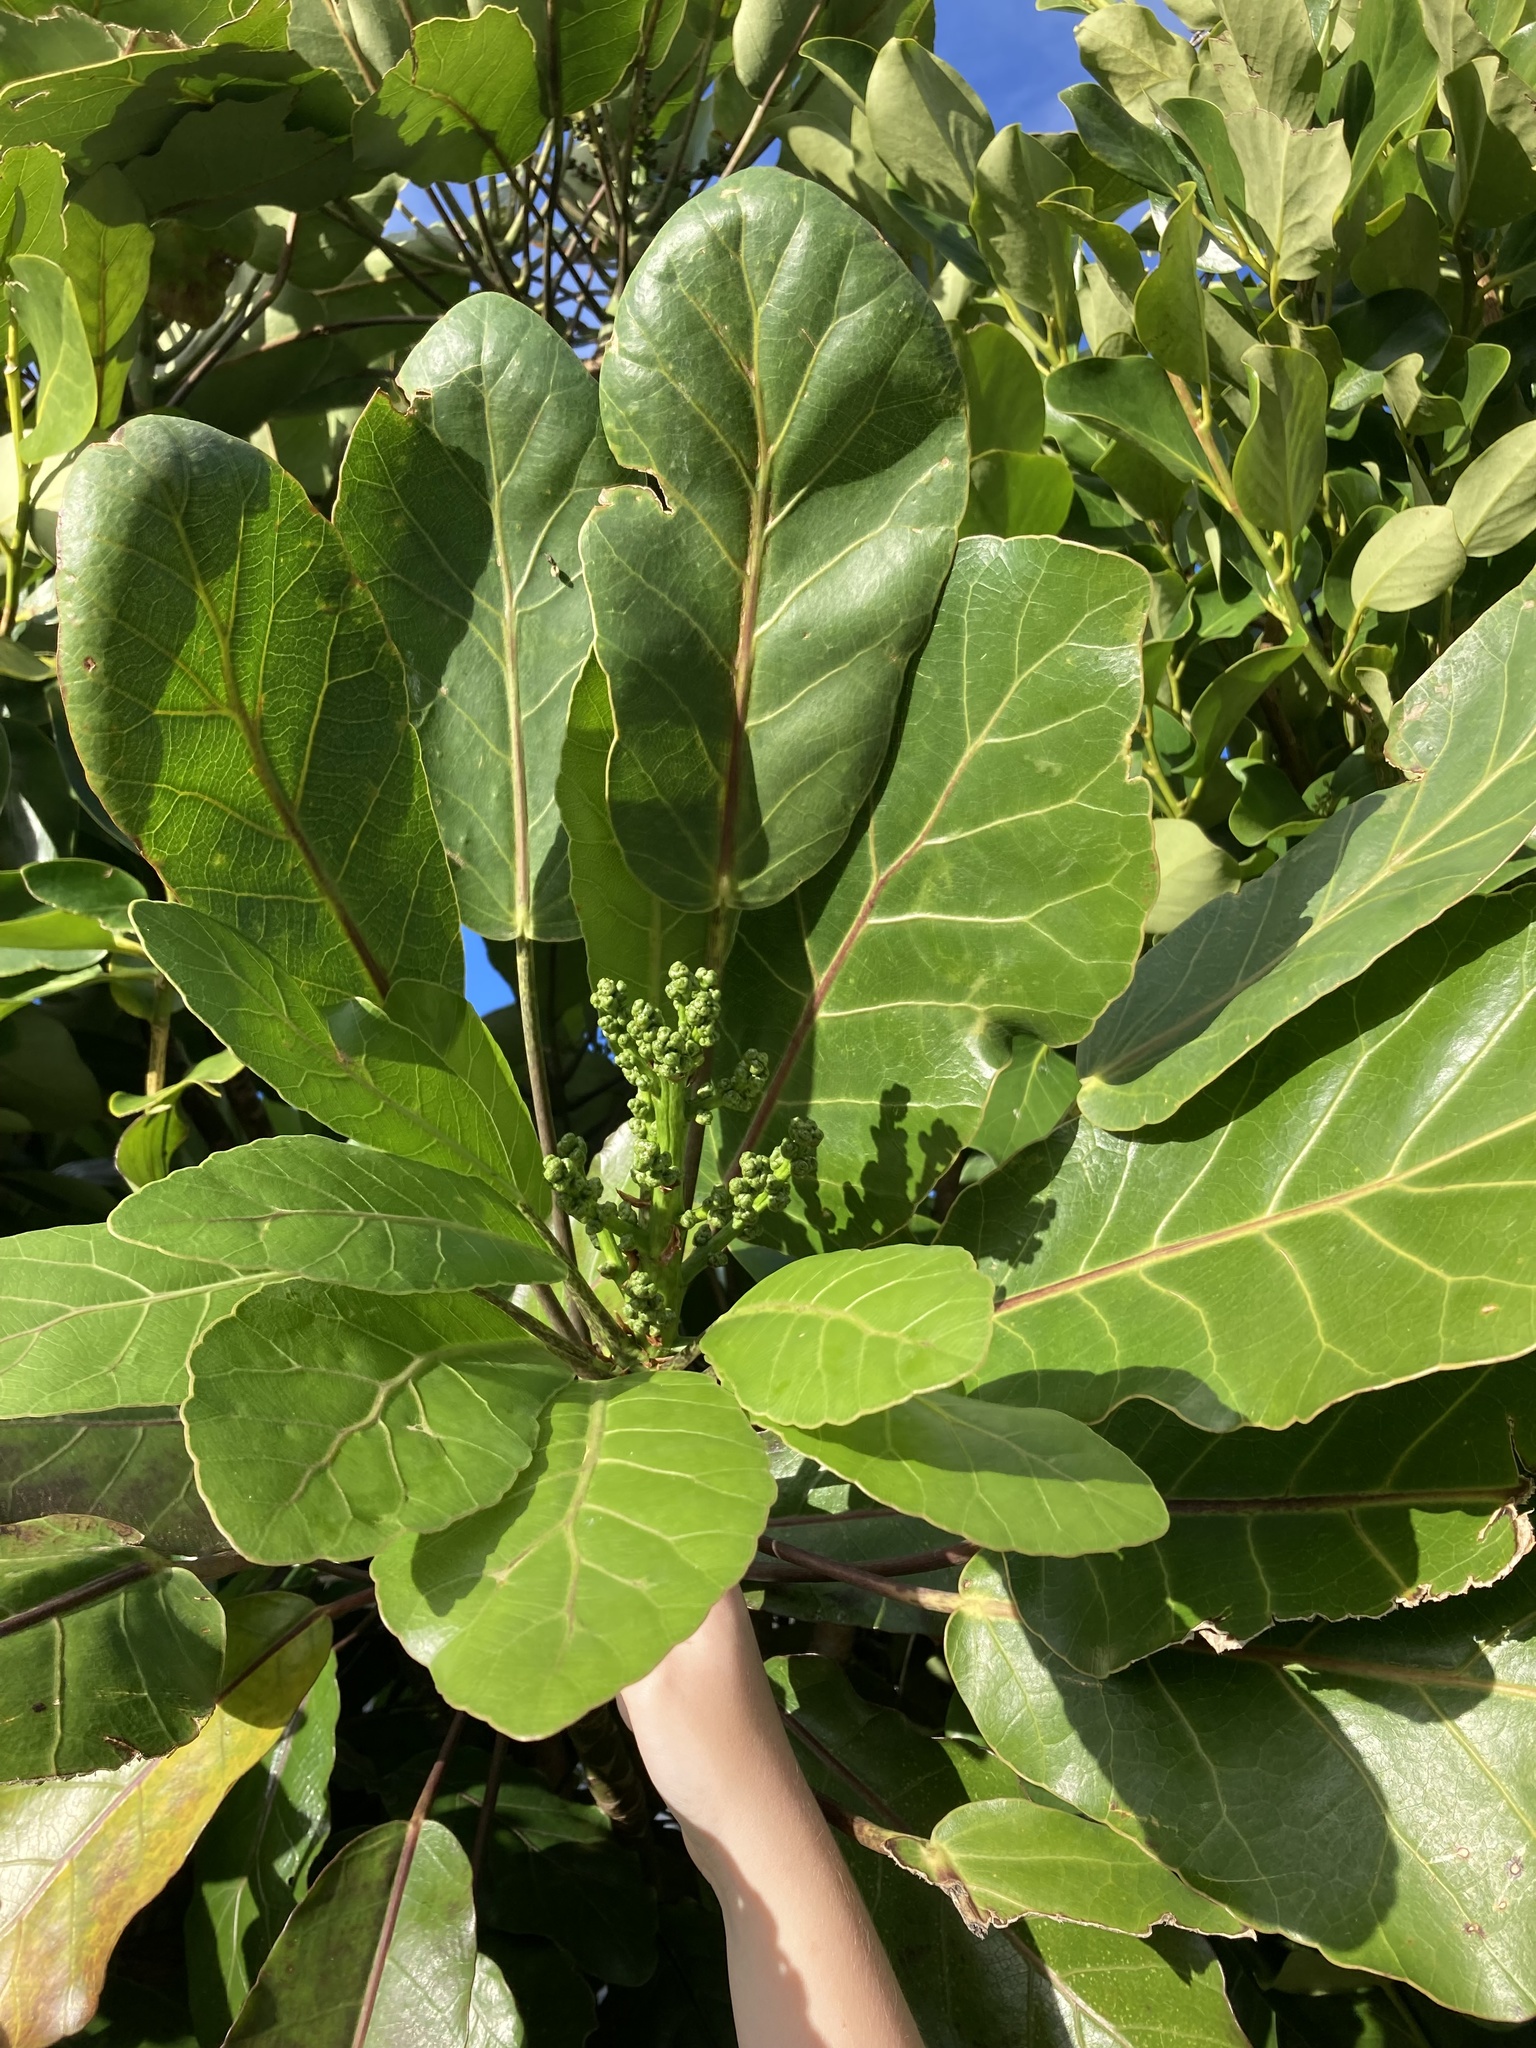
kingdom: Plantae
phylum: Tracheophyta
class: Magnoliopsida
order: Apiales
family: Araliaceae
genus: Meryta
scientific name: Meryta sinclairii
